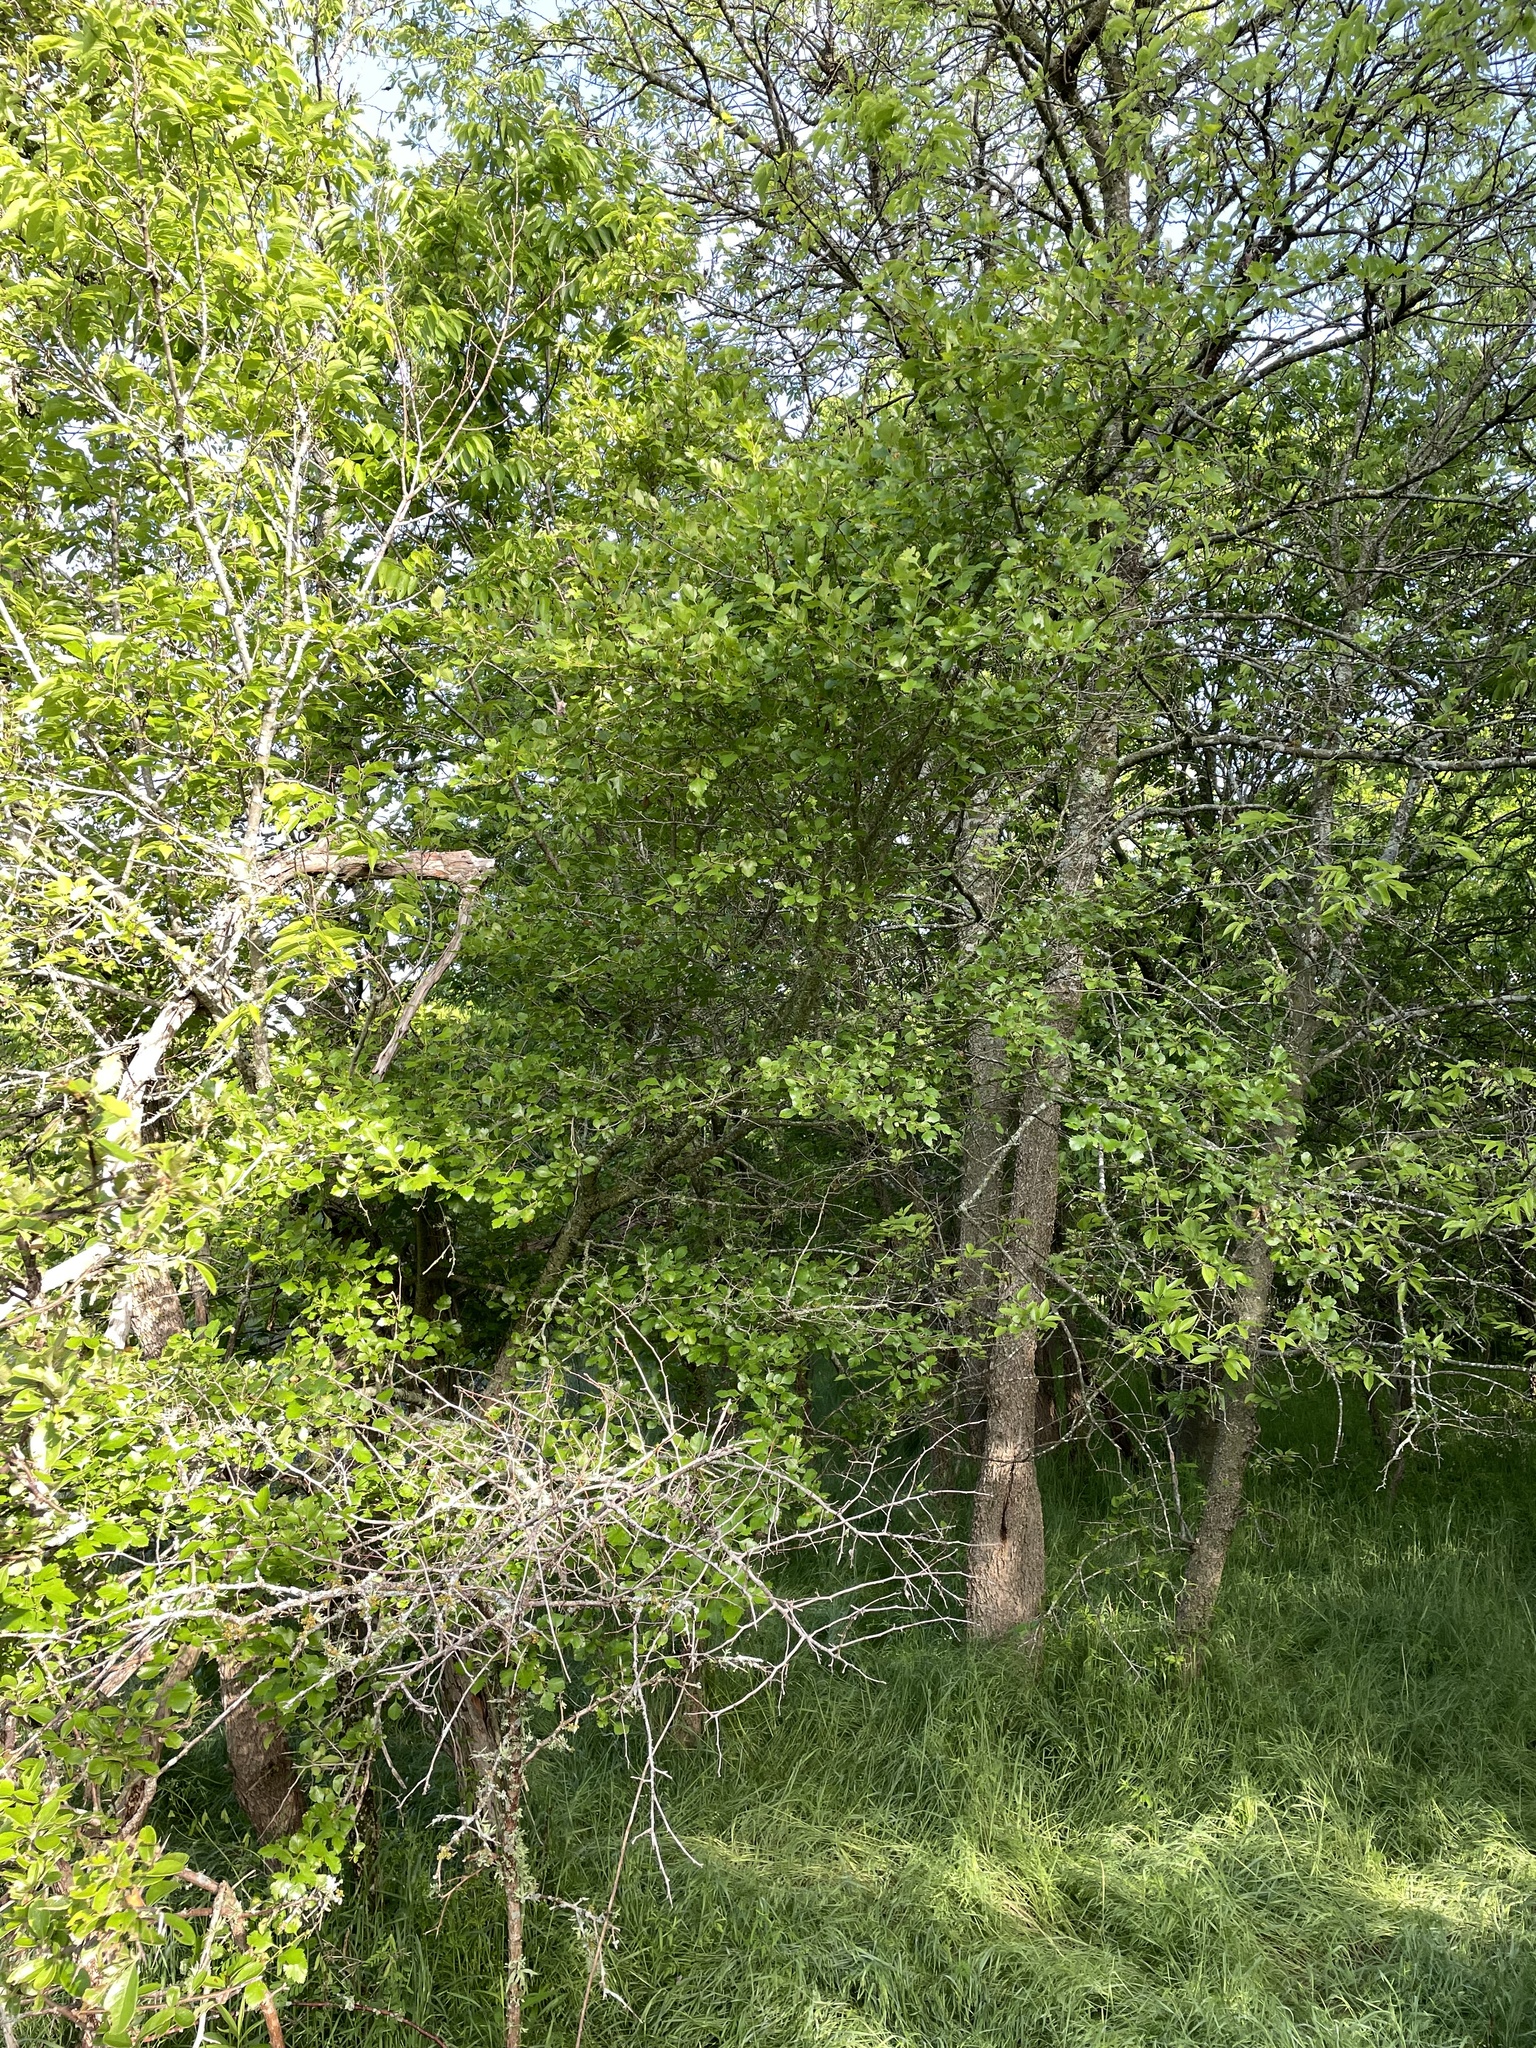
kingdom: Plantae
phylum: Tracheophyta
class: Magnoliopsida
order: Rosales
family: Rosaceae
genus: Crataegus
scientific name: Crataegus viridis
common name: Southernthorn
